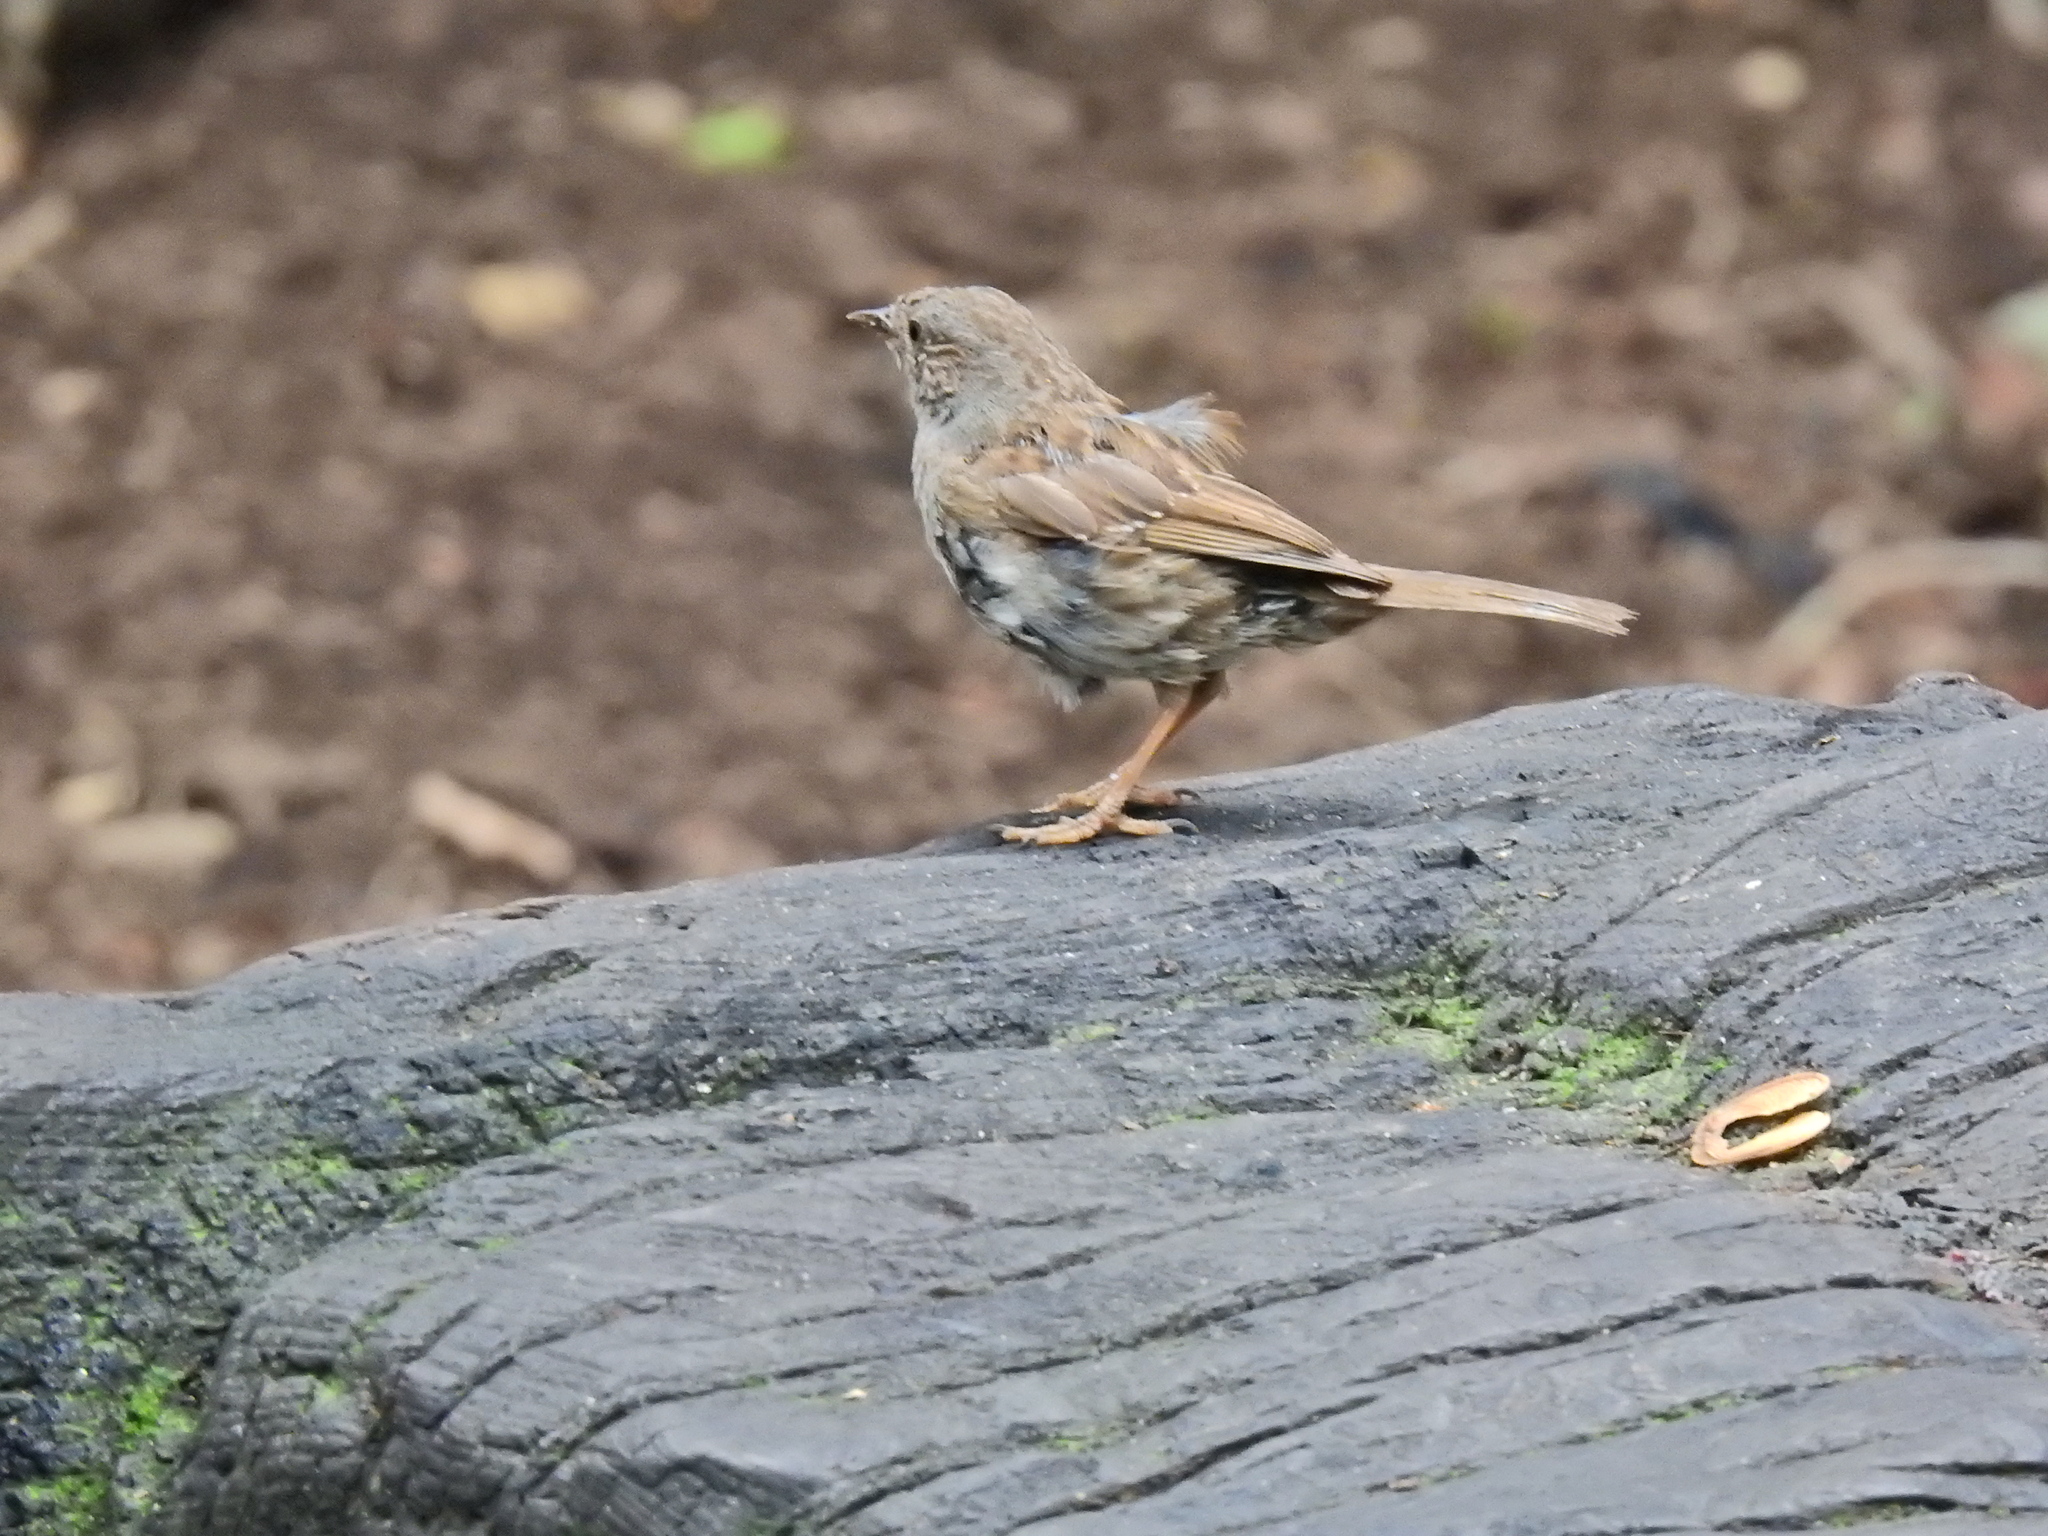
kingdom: Animalia
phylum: Chordata
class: Aves
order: Passeriformes
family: Prunellidae
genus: Prunella
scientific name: Prunella modularis
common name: Dunnock
